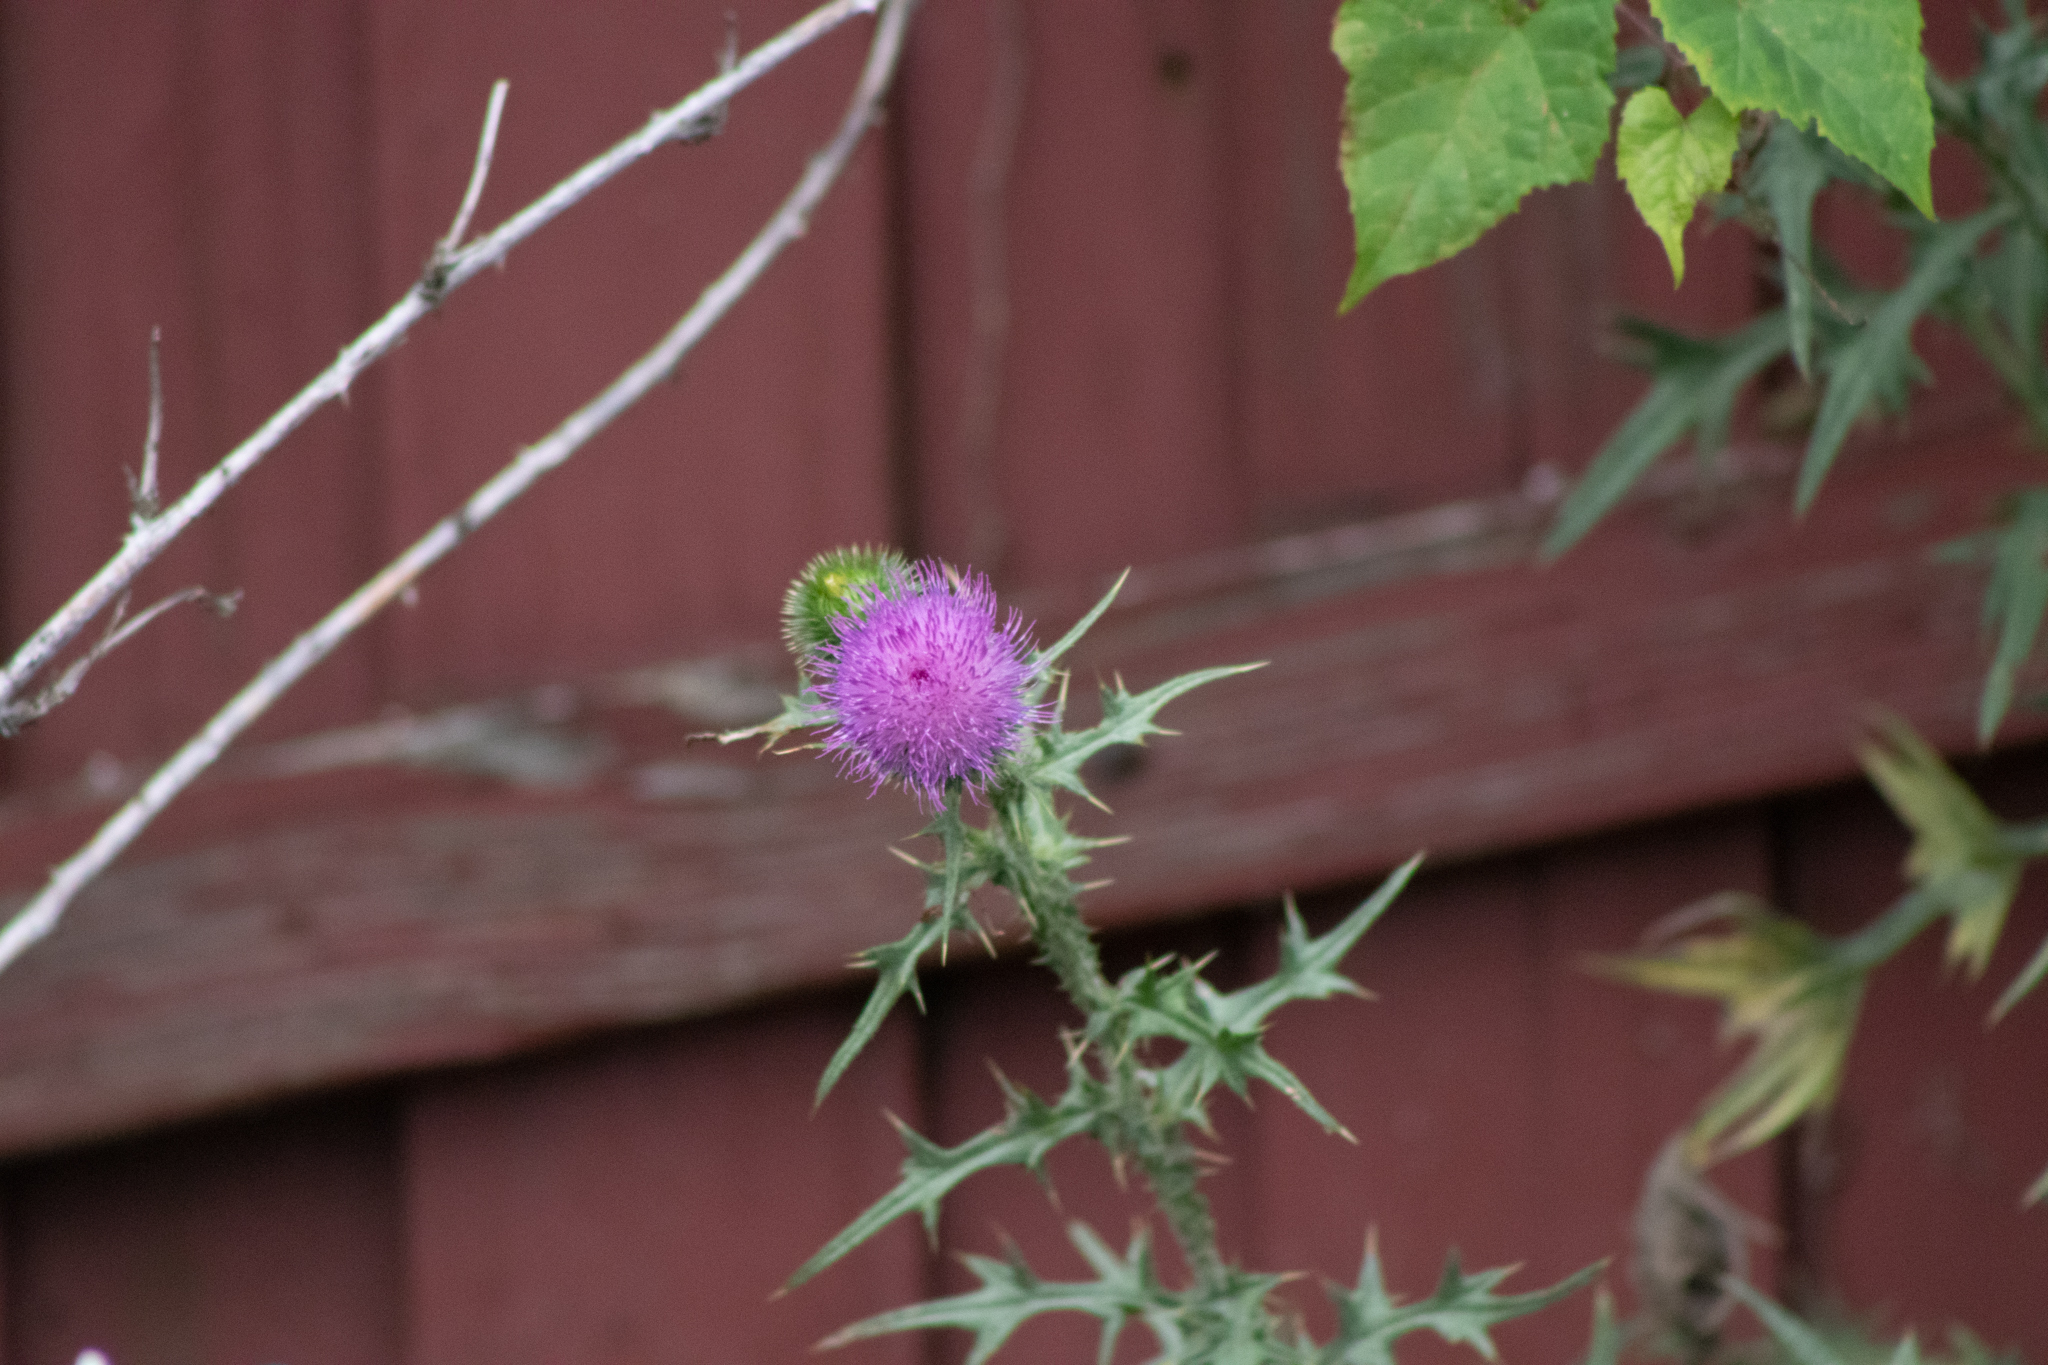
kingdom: Plantae
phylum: Tracheophyta
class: Magnoliopsida
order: Asterales
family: Asteraceae
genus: Cirsium
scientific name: Cirsium vulgare
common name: Bull thistle
